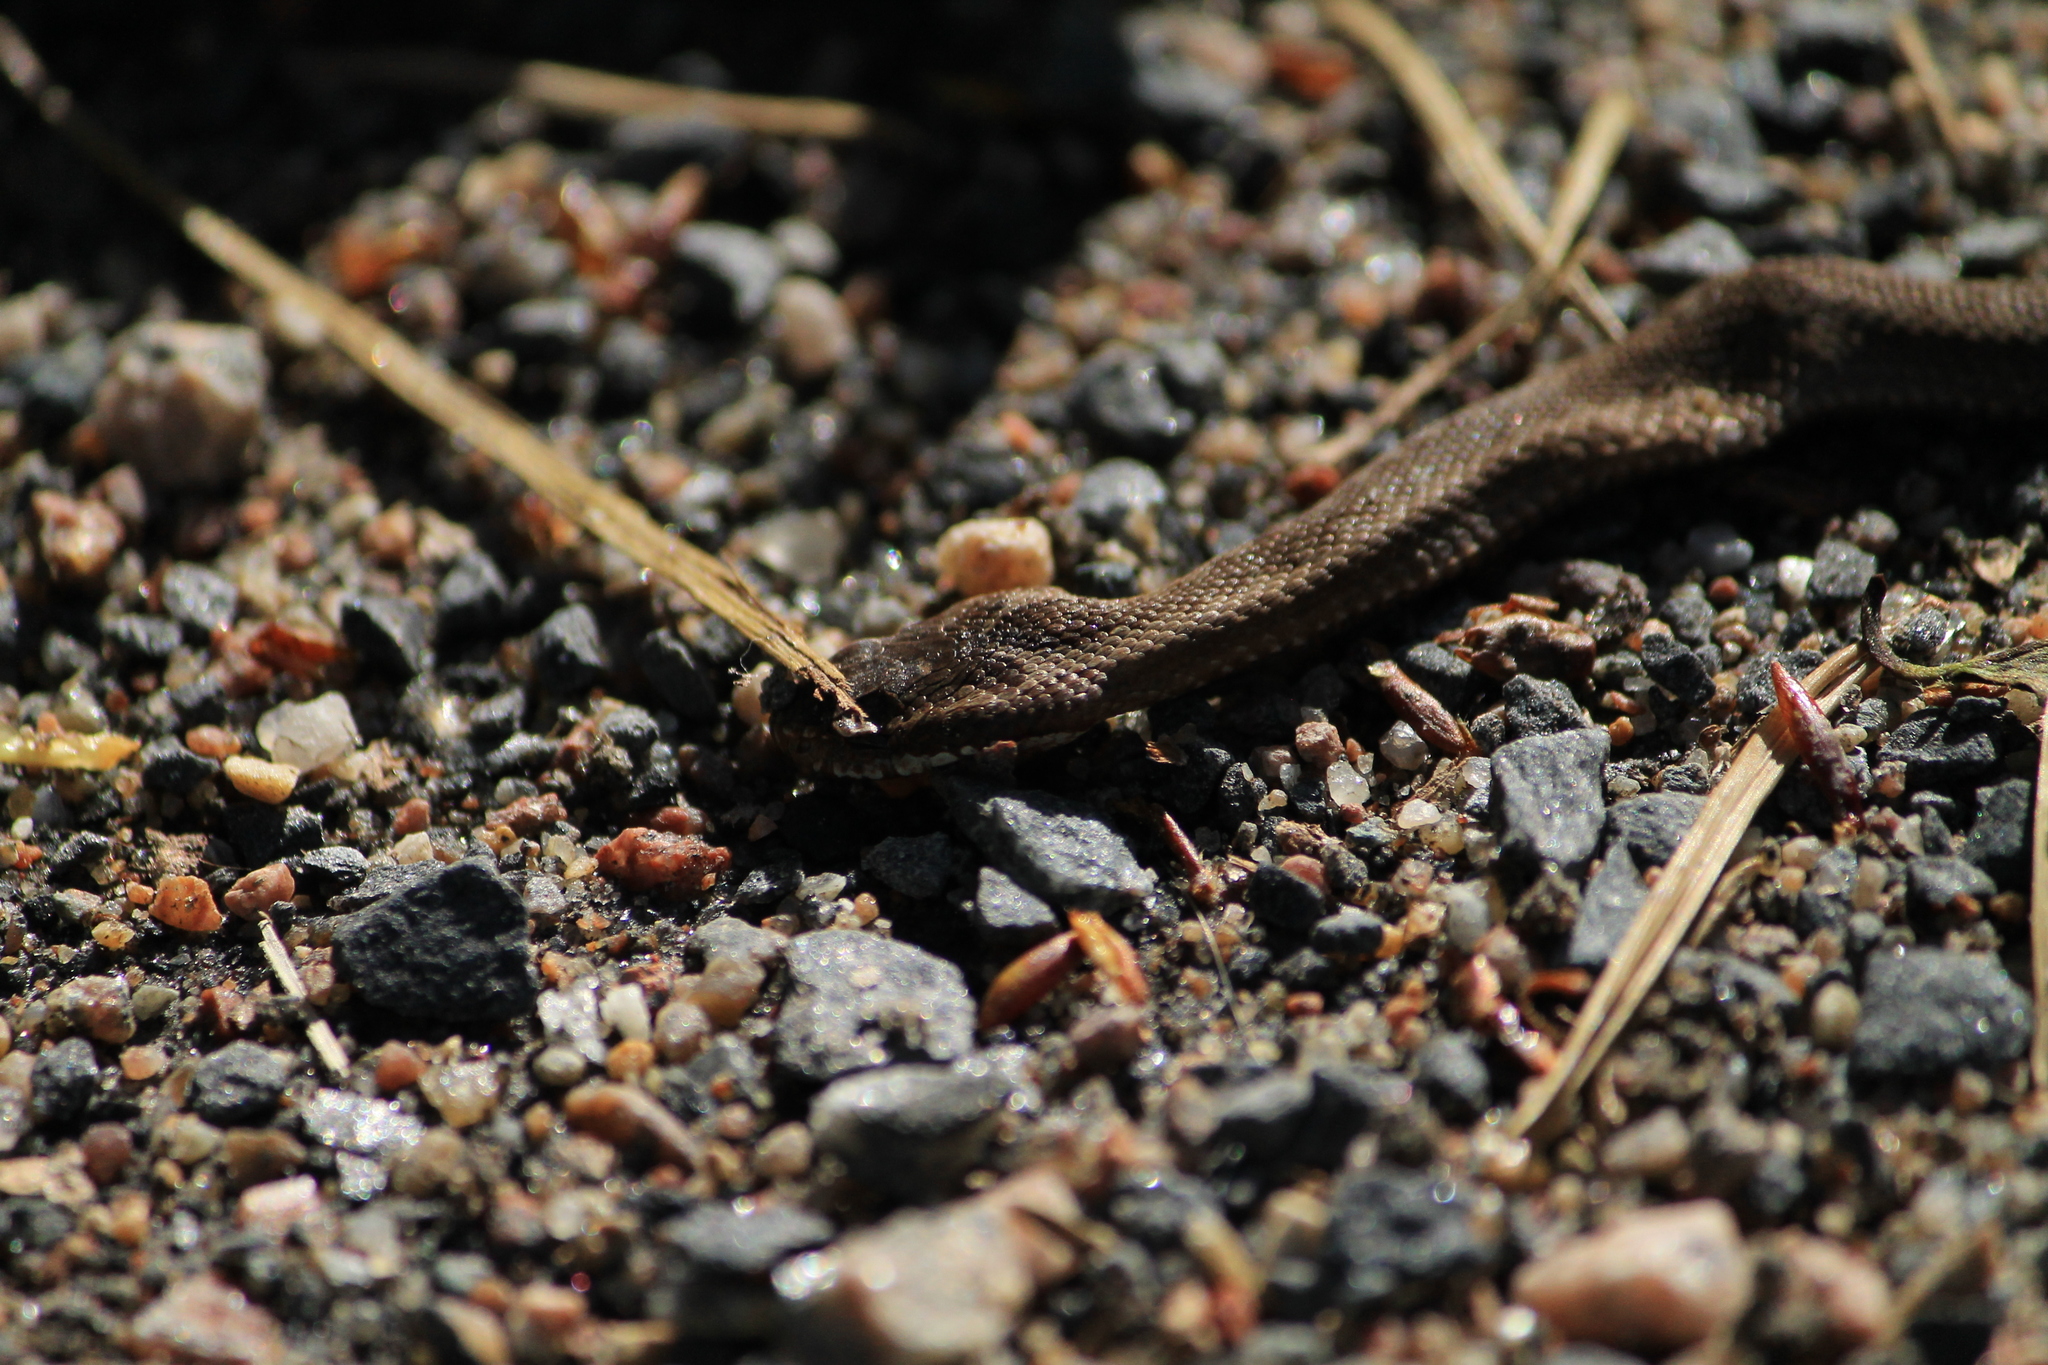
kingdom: Animalia
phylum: Chordata
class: Squamata
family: Viperidae
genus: Vipera
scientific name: Vipera berus
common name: Adder
